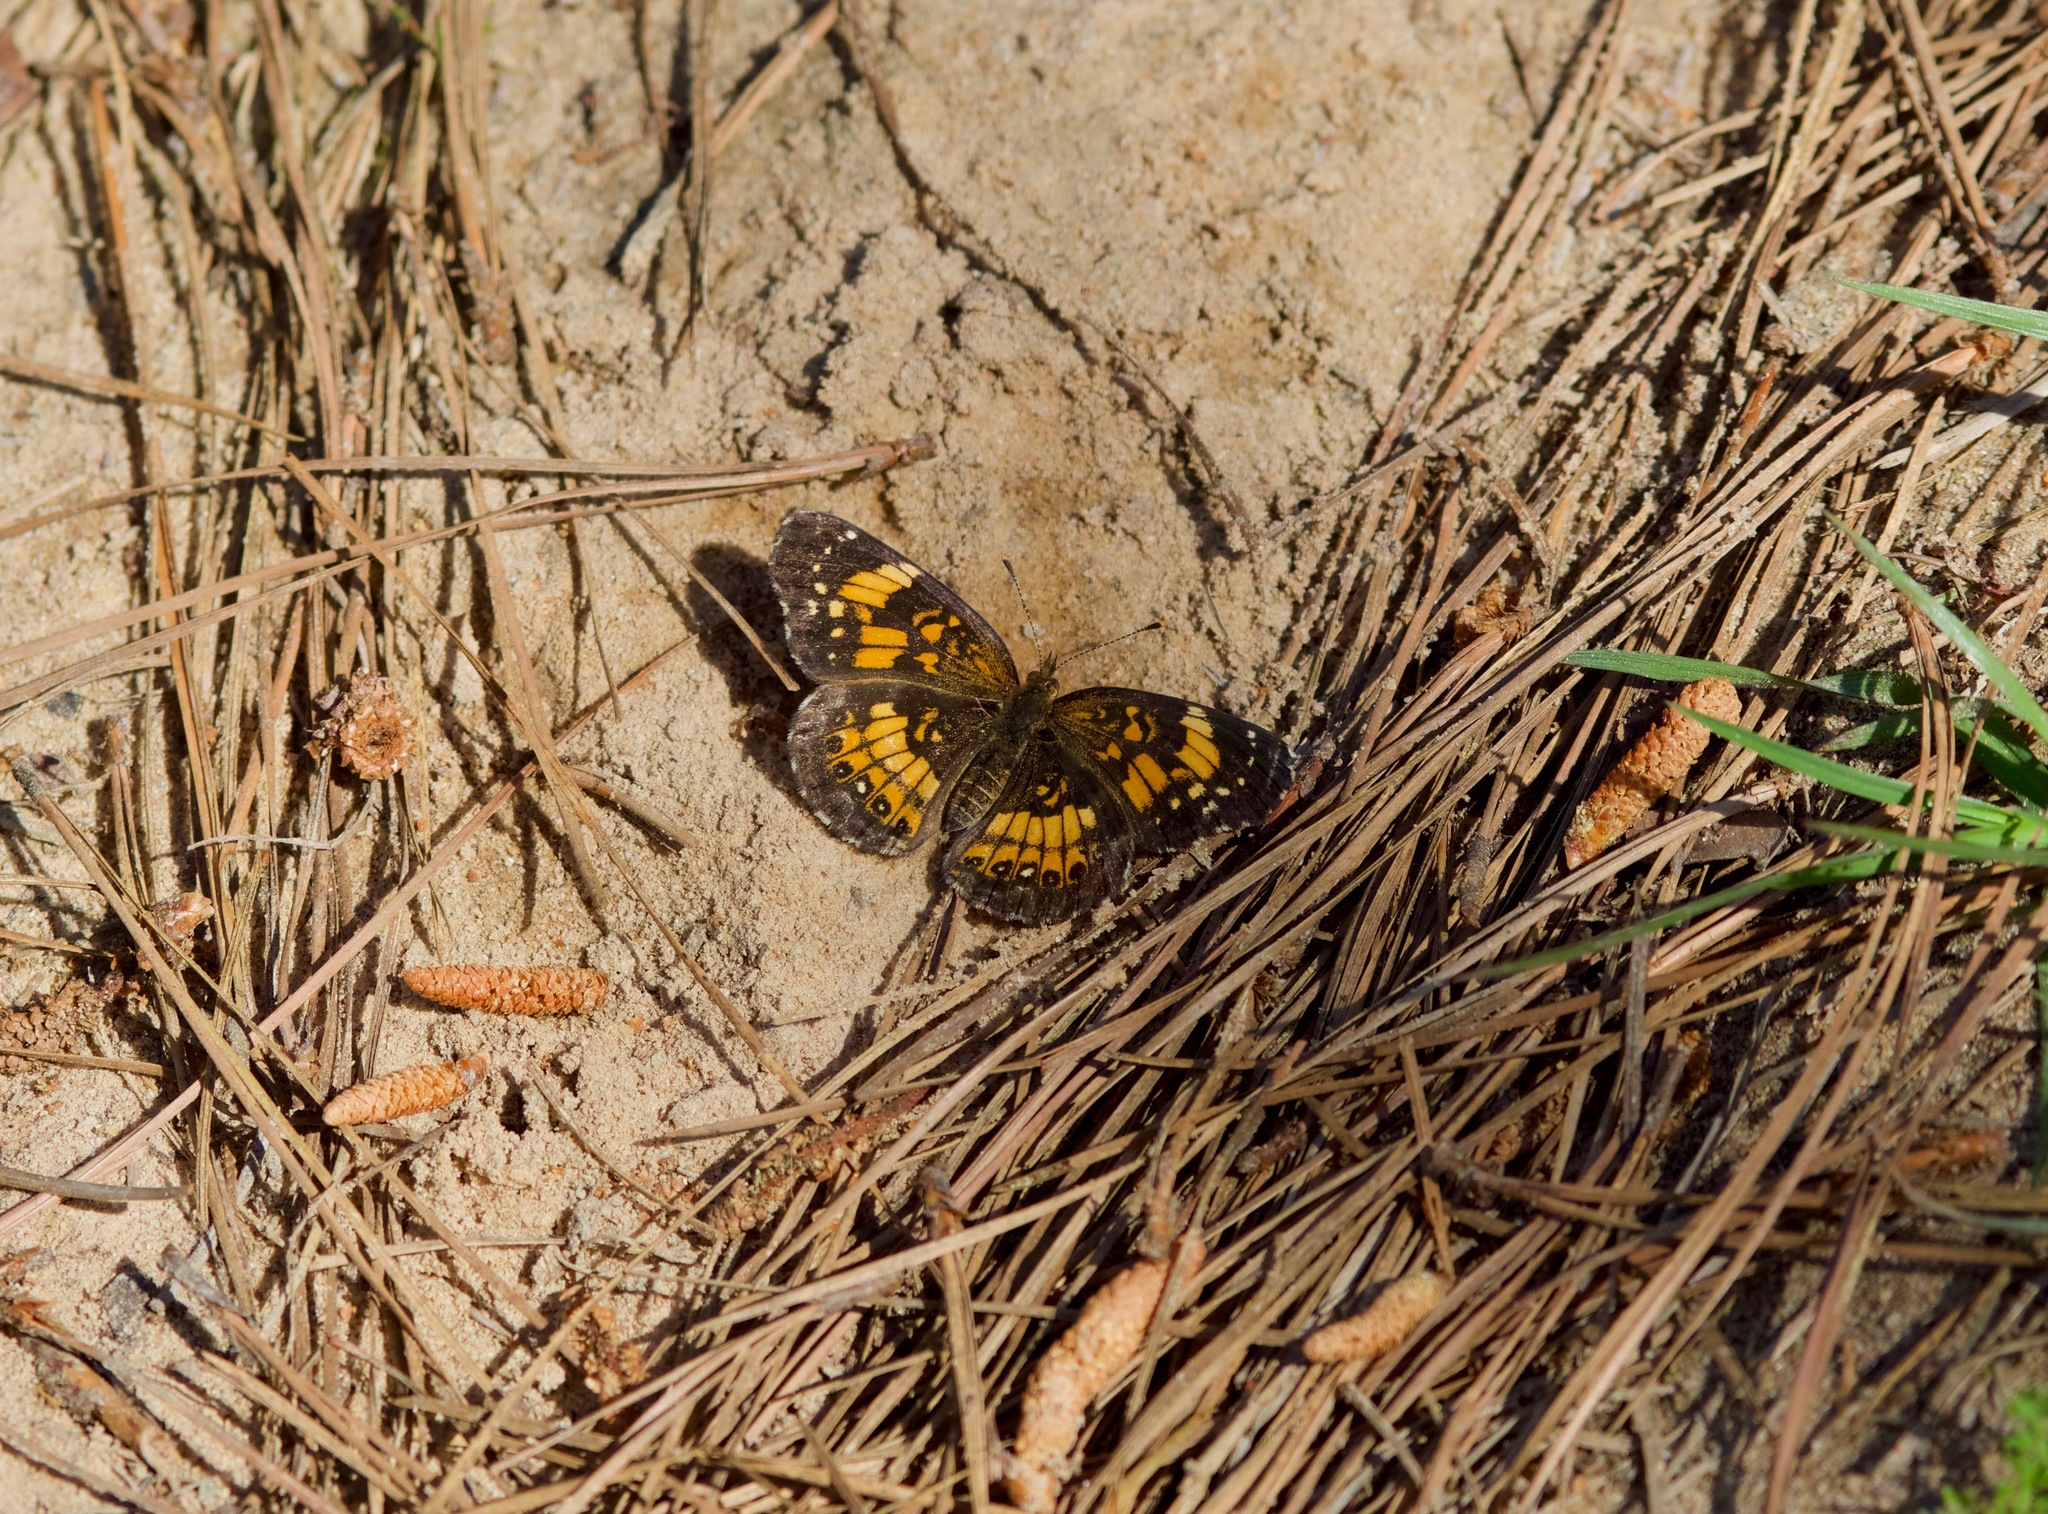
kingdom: Animalia
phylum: Arthropoda
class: Insecta
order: Lepidoptera
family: Nymphalidae
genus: Chlosyne
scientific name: Chlosyne nycteis
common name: Silvery checkerspot
